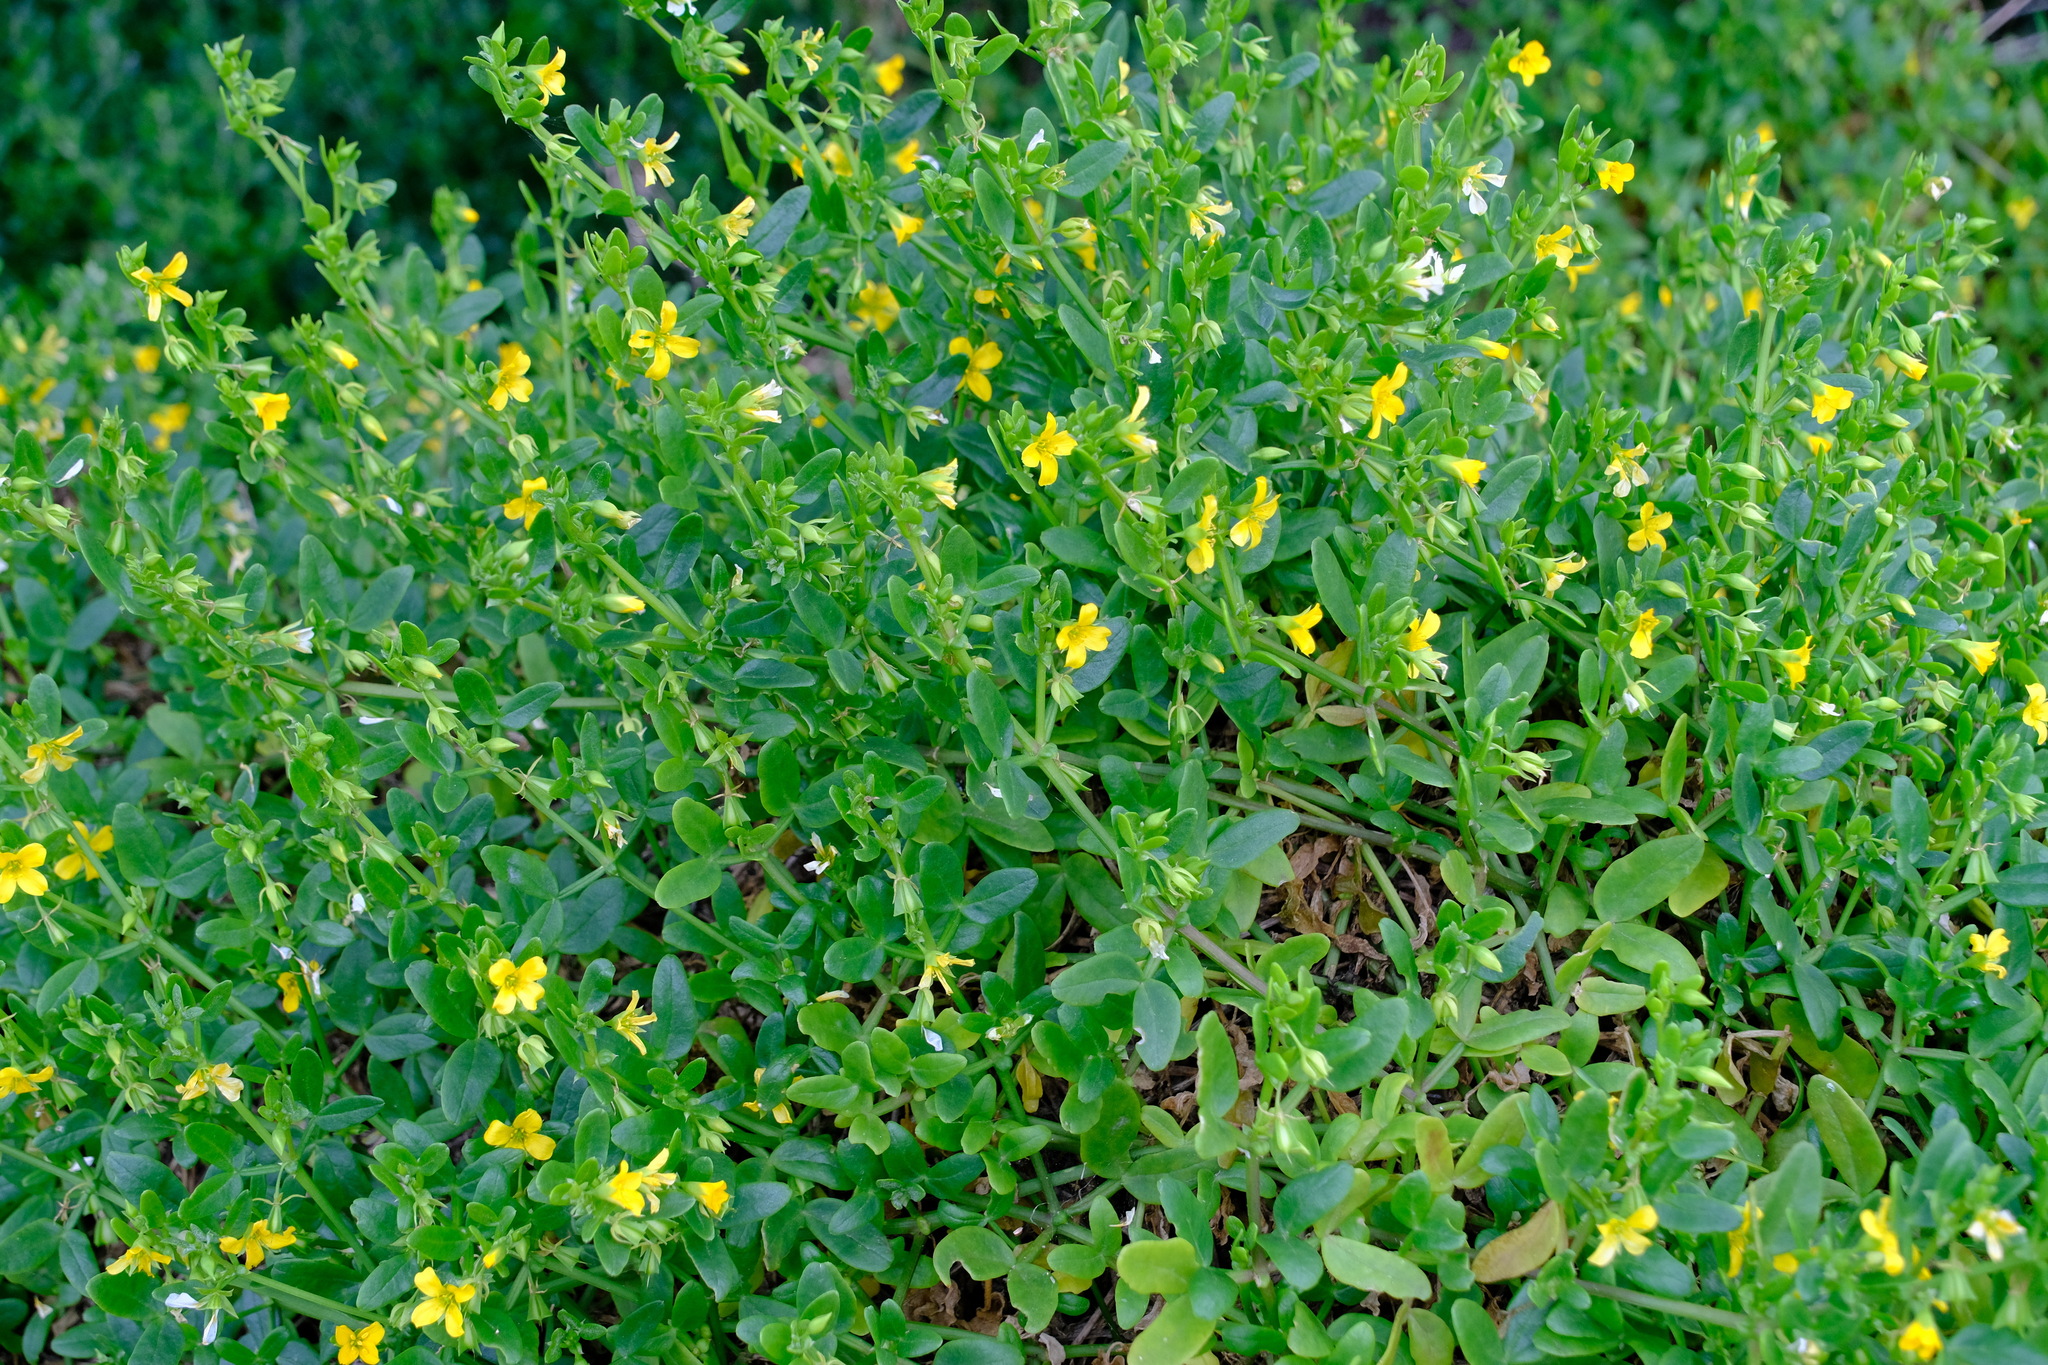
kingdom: Plantae
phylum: Tracheophyta
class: Magnoliopsida
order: Zygophyllales
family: Zygophyllaceae
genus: Roepera
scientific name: Roepera billardieri
